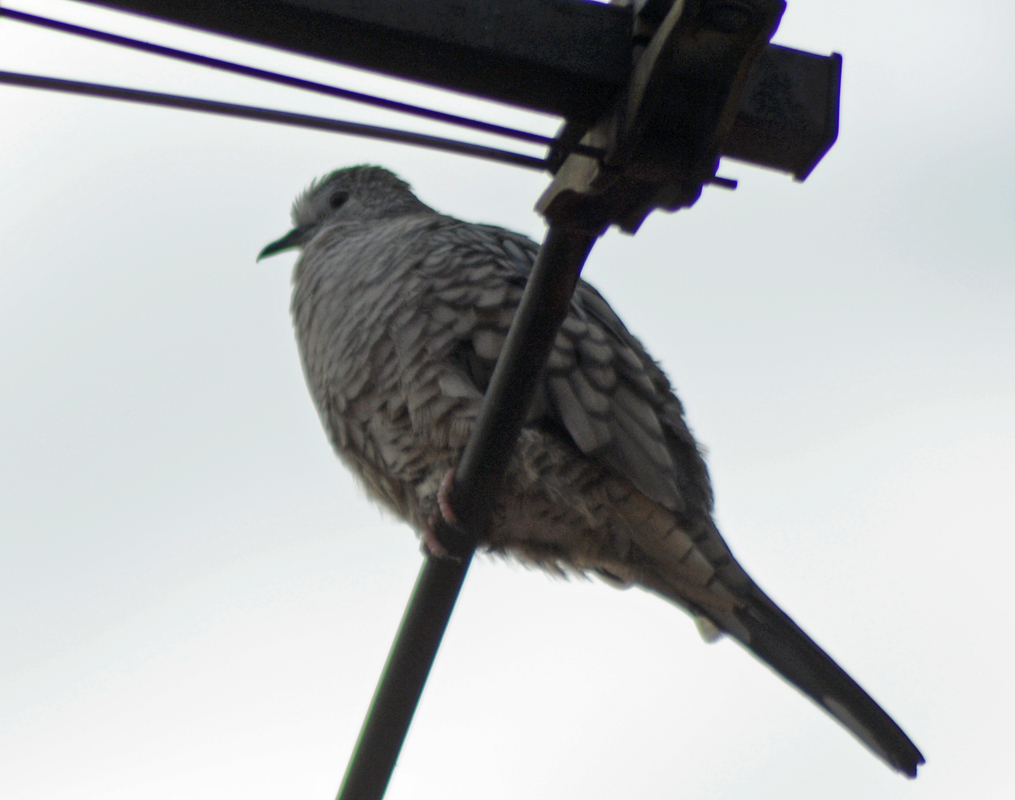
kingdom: Animalia
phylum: Chordata
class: Aves
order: Columbiformes
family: Columbidae
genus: Columbina
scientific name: Columbina inca
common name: Inca dove
